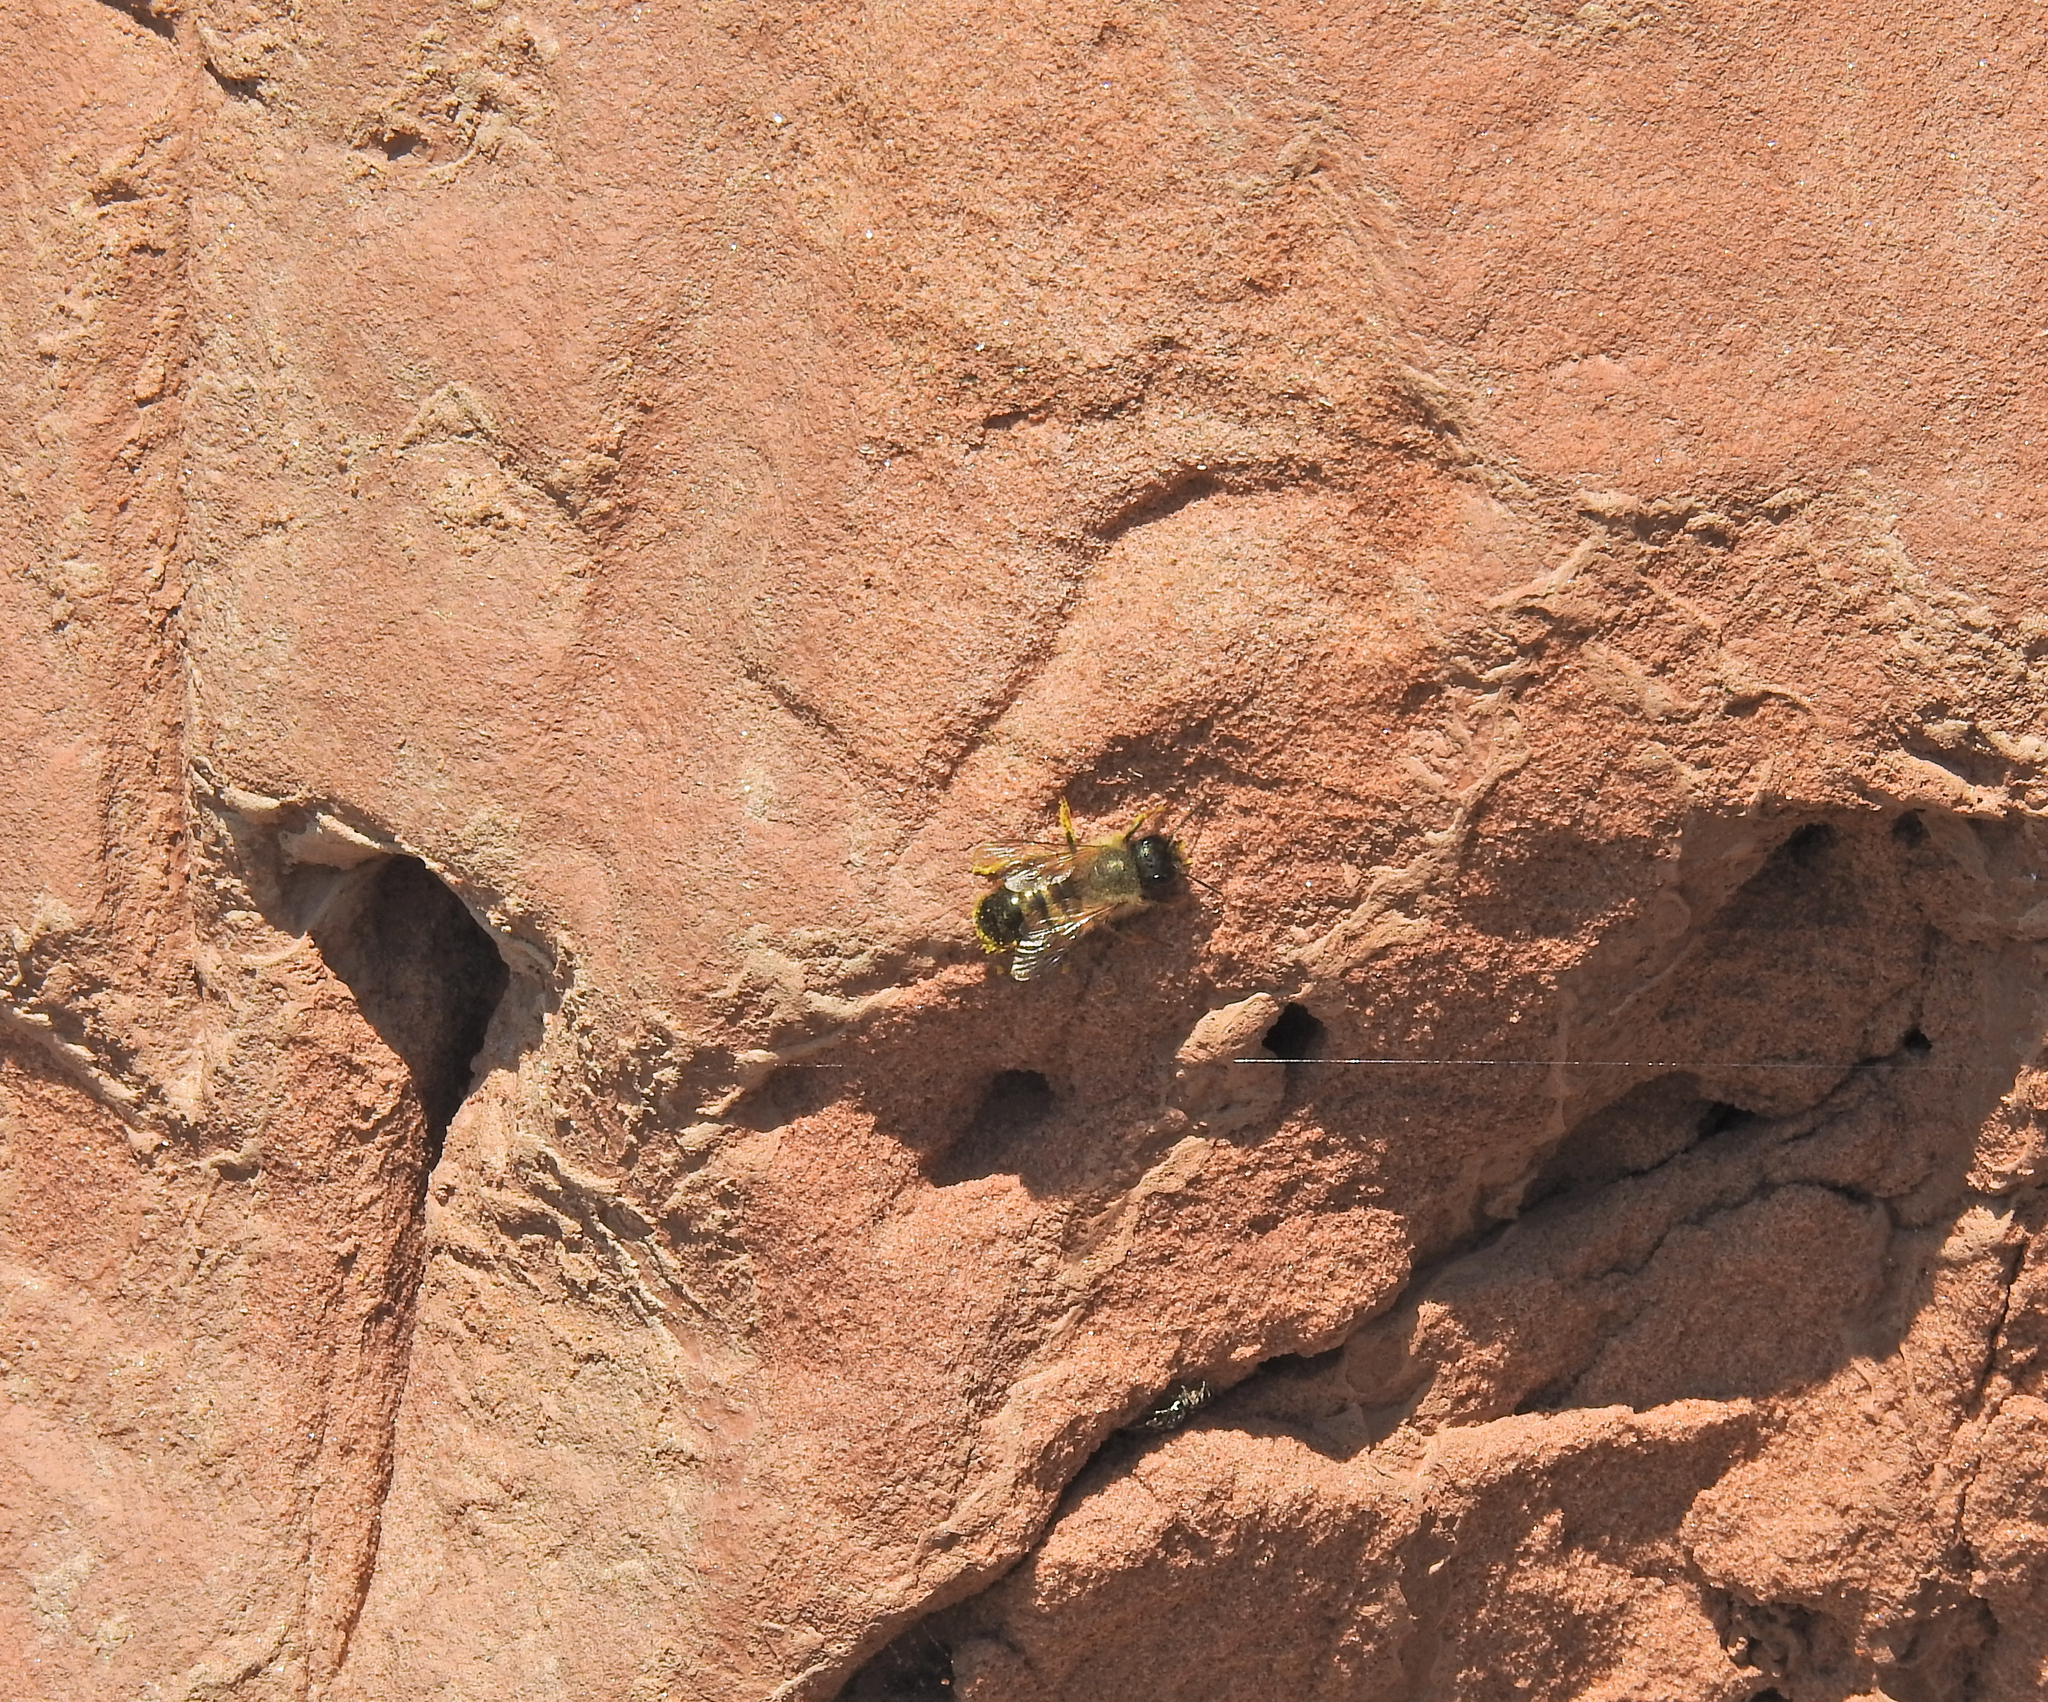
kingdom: Animalia
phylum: Arthropoda
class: Insecta
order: Hymenoptera
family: Megachilidae
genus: Osmia
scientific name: Osmia bicornis
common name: Red mason bee
